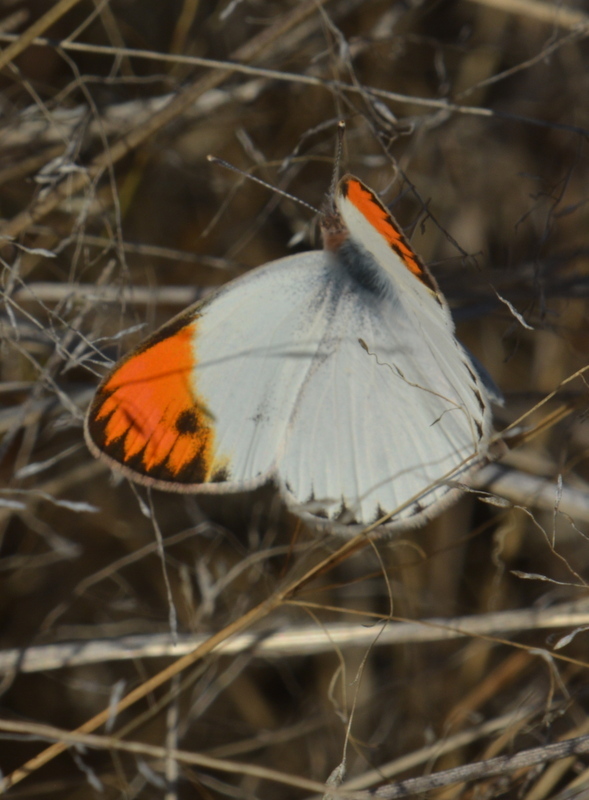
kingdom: Animalia
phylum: Arthropoda
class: Insecta
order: Lepidoptera
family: Pieridae
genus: Colotis
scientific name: Colotis evagore
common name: Desert orange-tip
